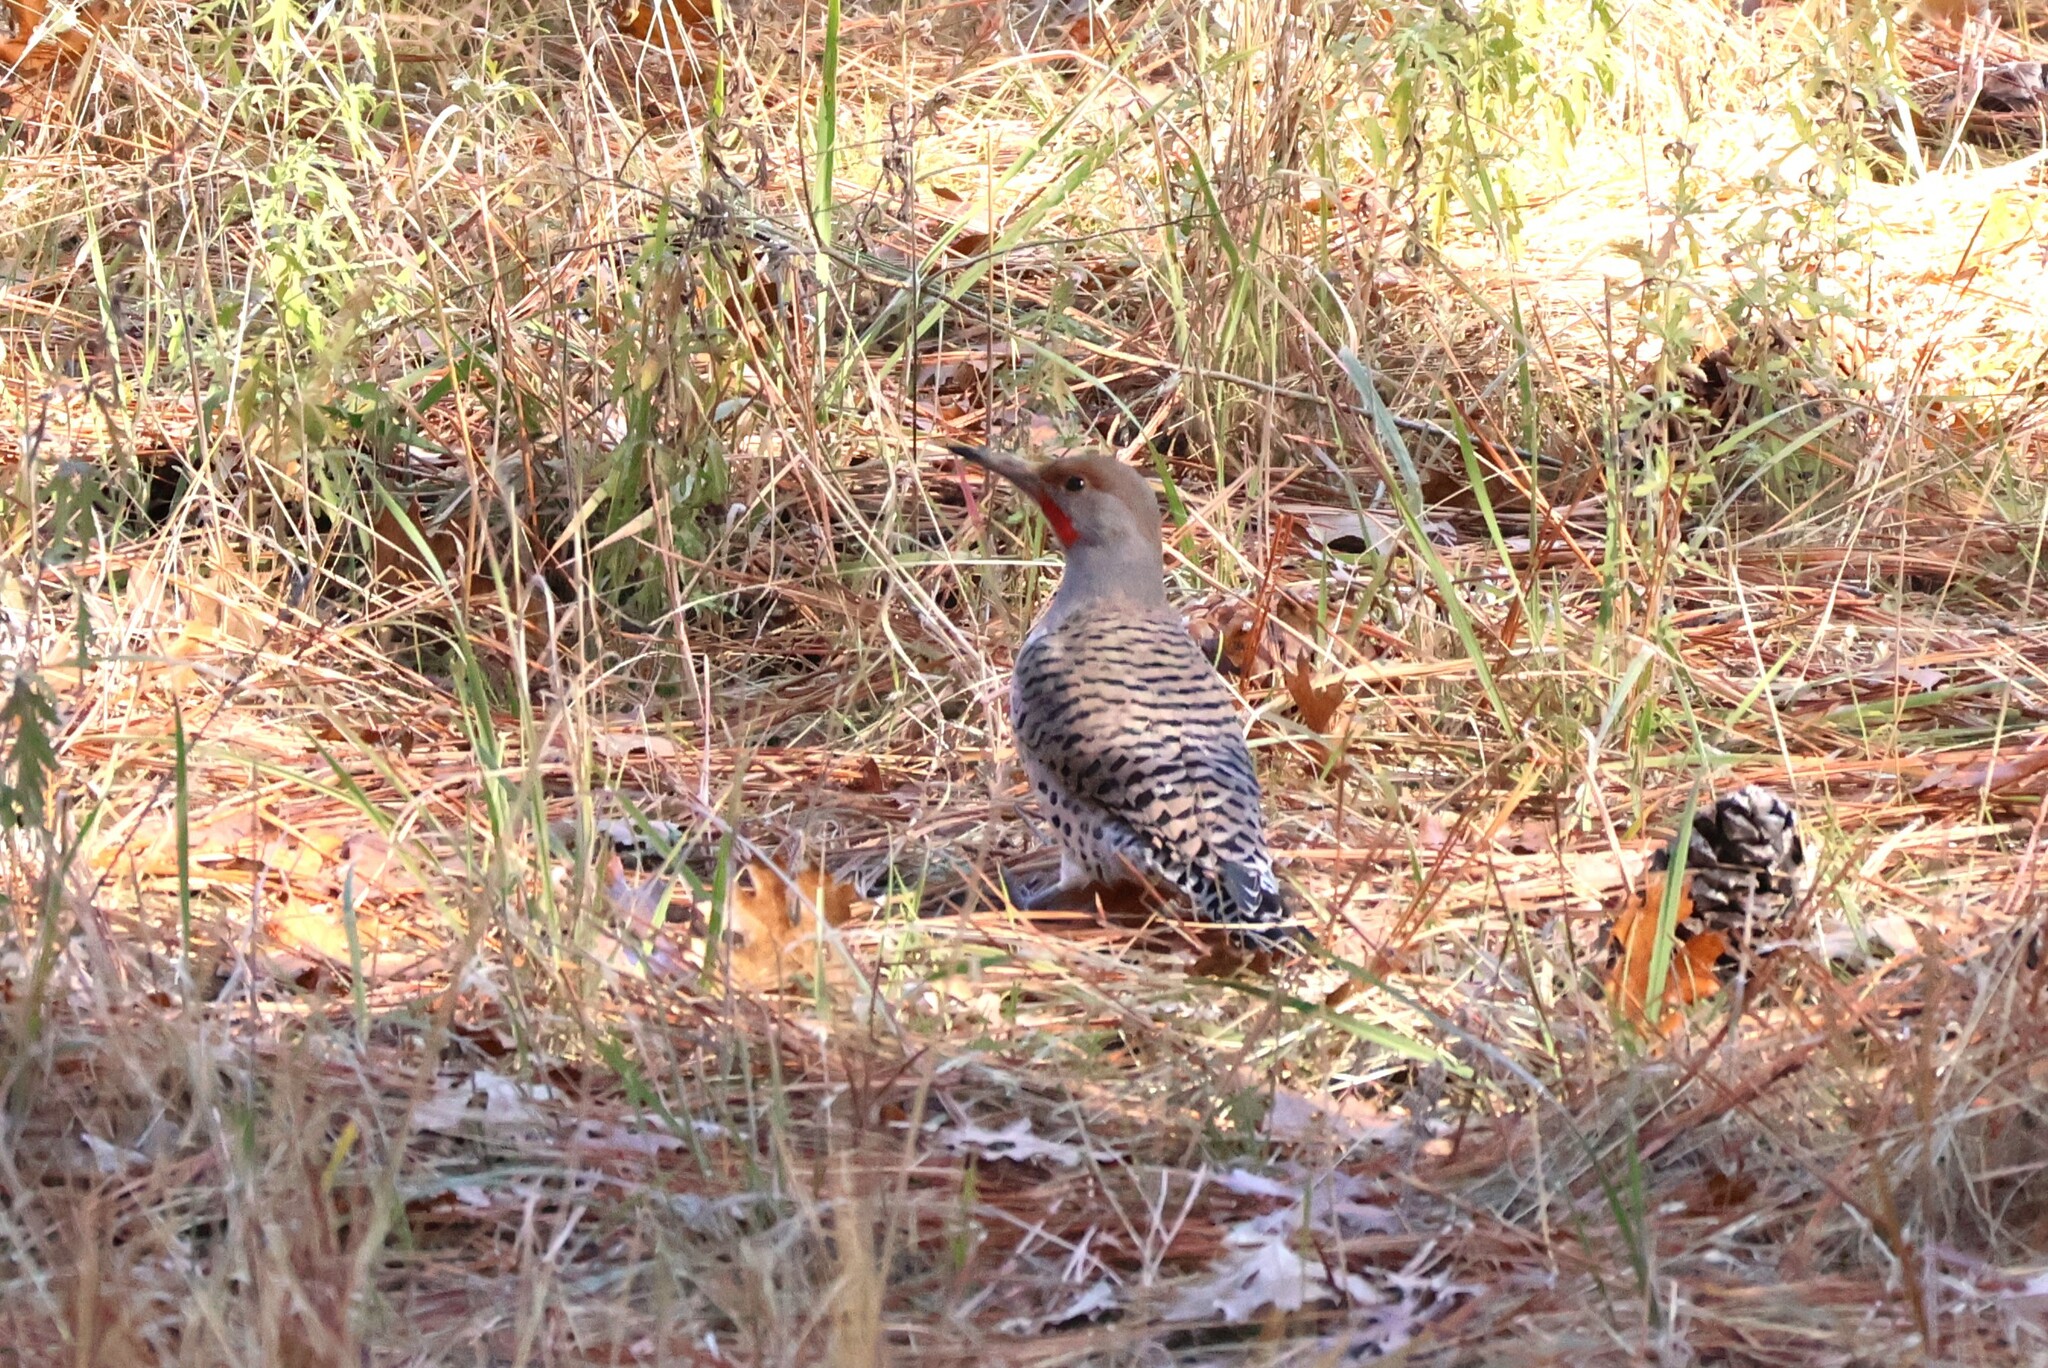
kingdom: Animalia
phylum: Chordata
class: Aves
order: Piciformes
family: Picidae
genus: Colaptes
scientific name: Colaptes auratus
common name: Northern flicker
